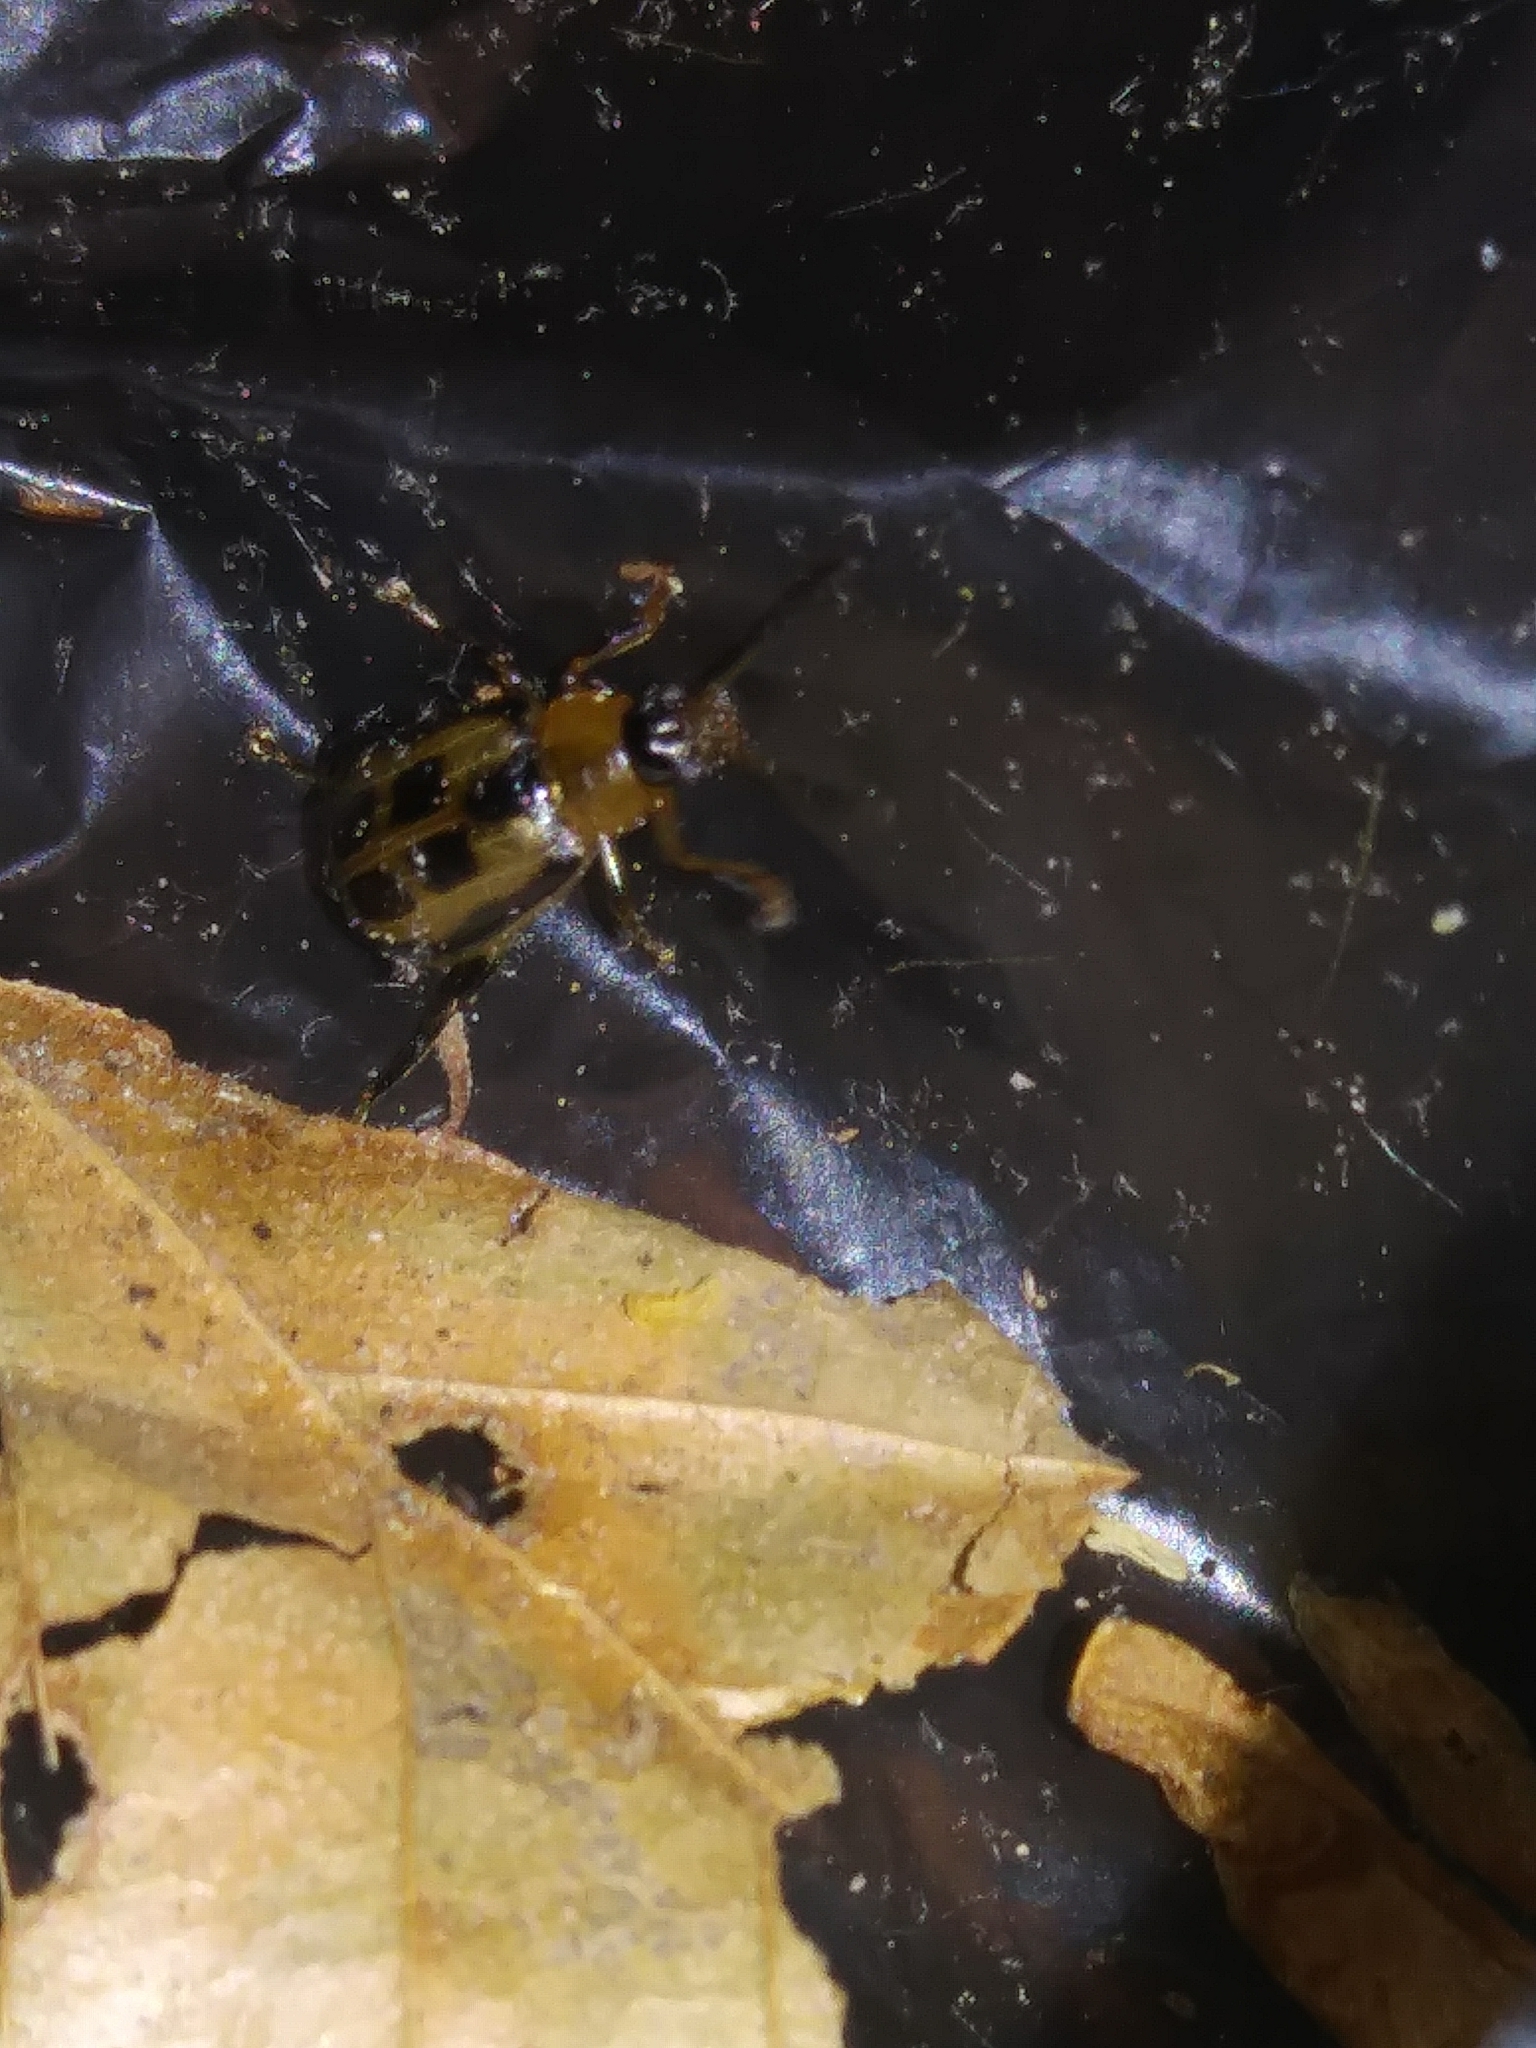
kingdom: Animalia
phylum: Arthropoda
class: Insecta
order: Coleoptera
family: Chrysomelidae
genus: Cerotoma
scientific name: Cerotoma trifurcata
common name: Bean leaf beetle
